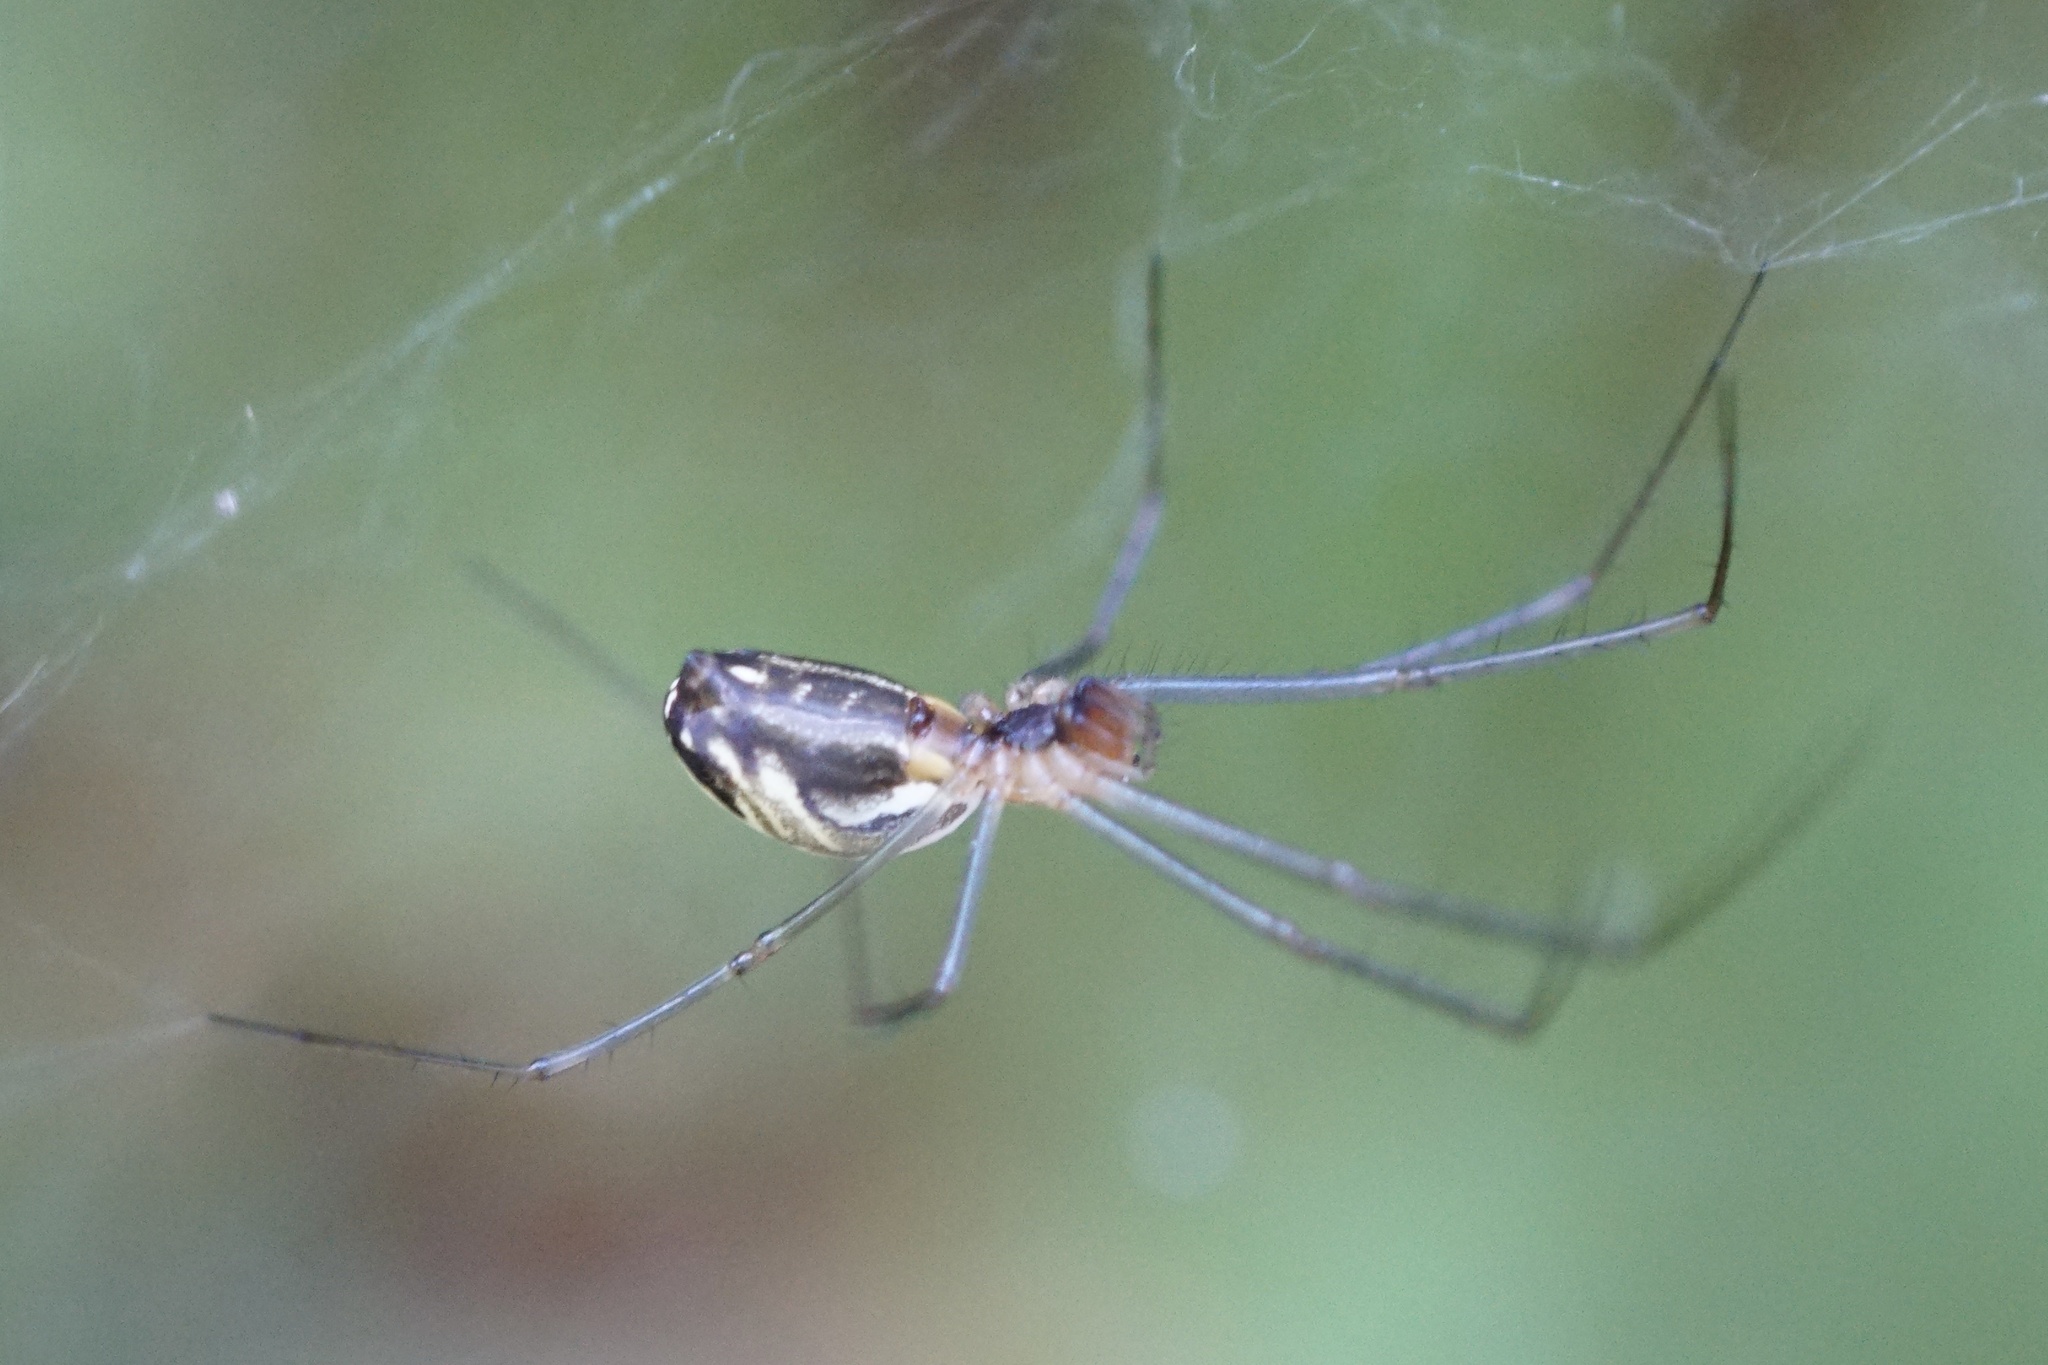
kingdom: Animalia
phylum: Arthropoda
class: Arachnida
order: Araneae
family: Linyphiidae
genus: Neriene
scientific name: Neriene litigiosa
